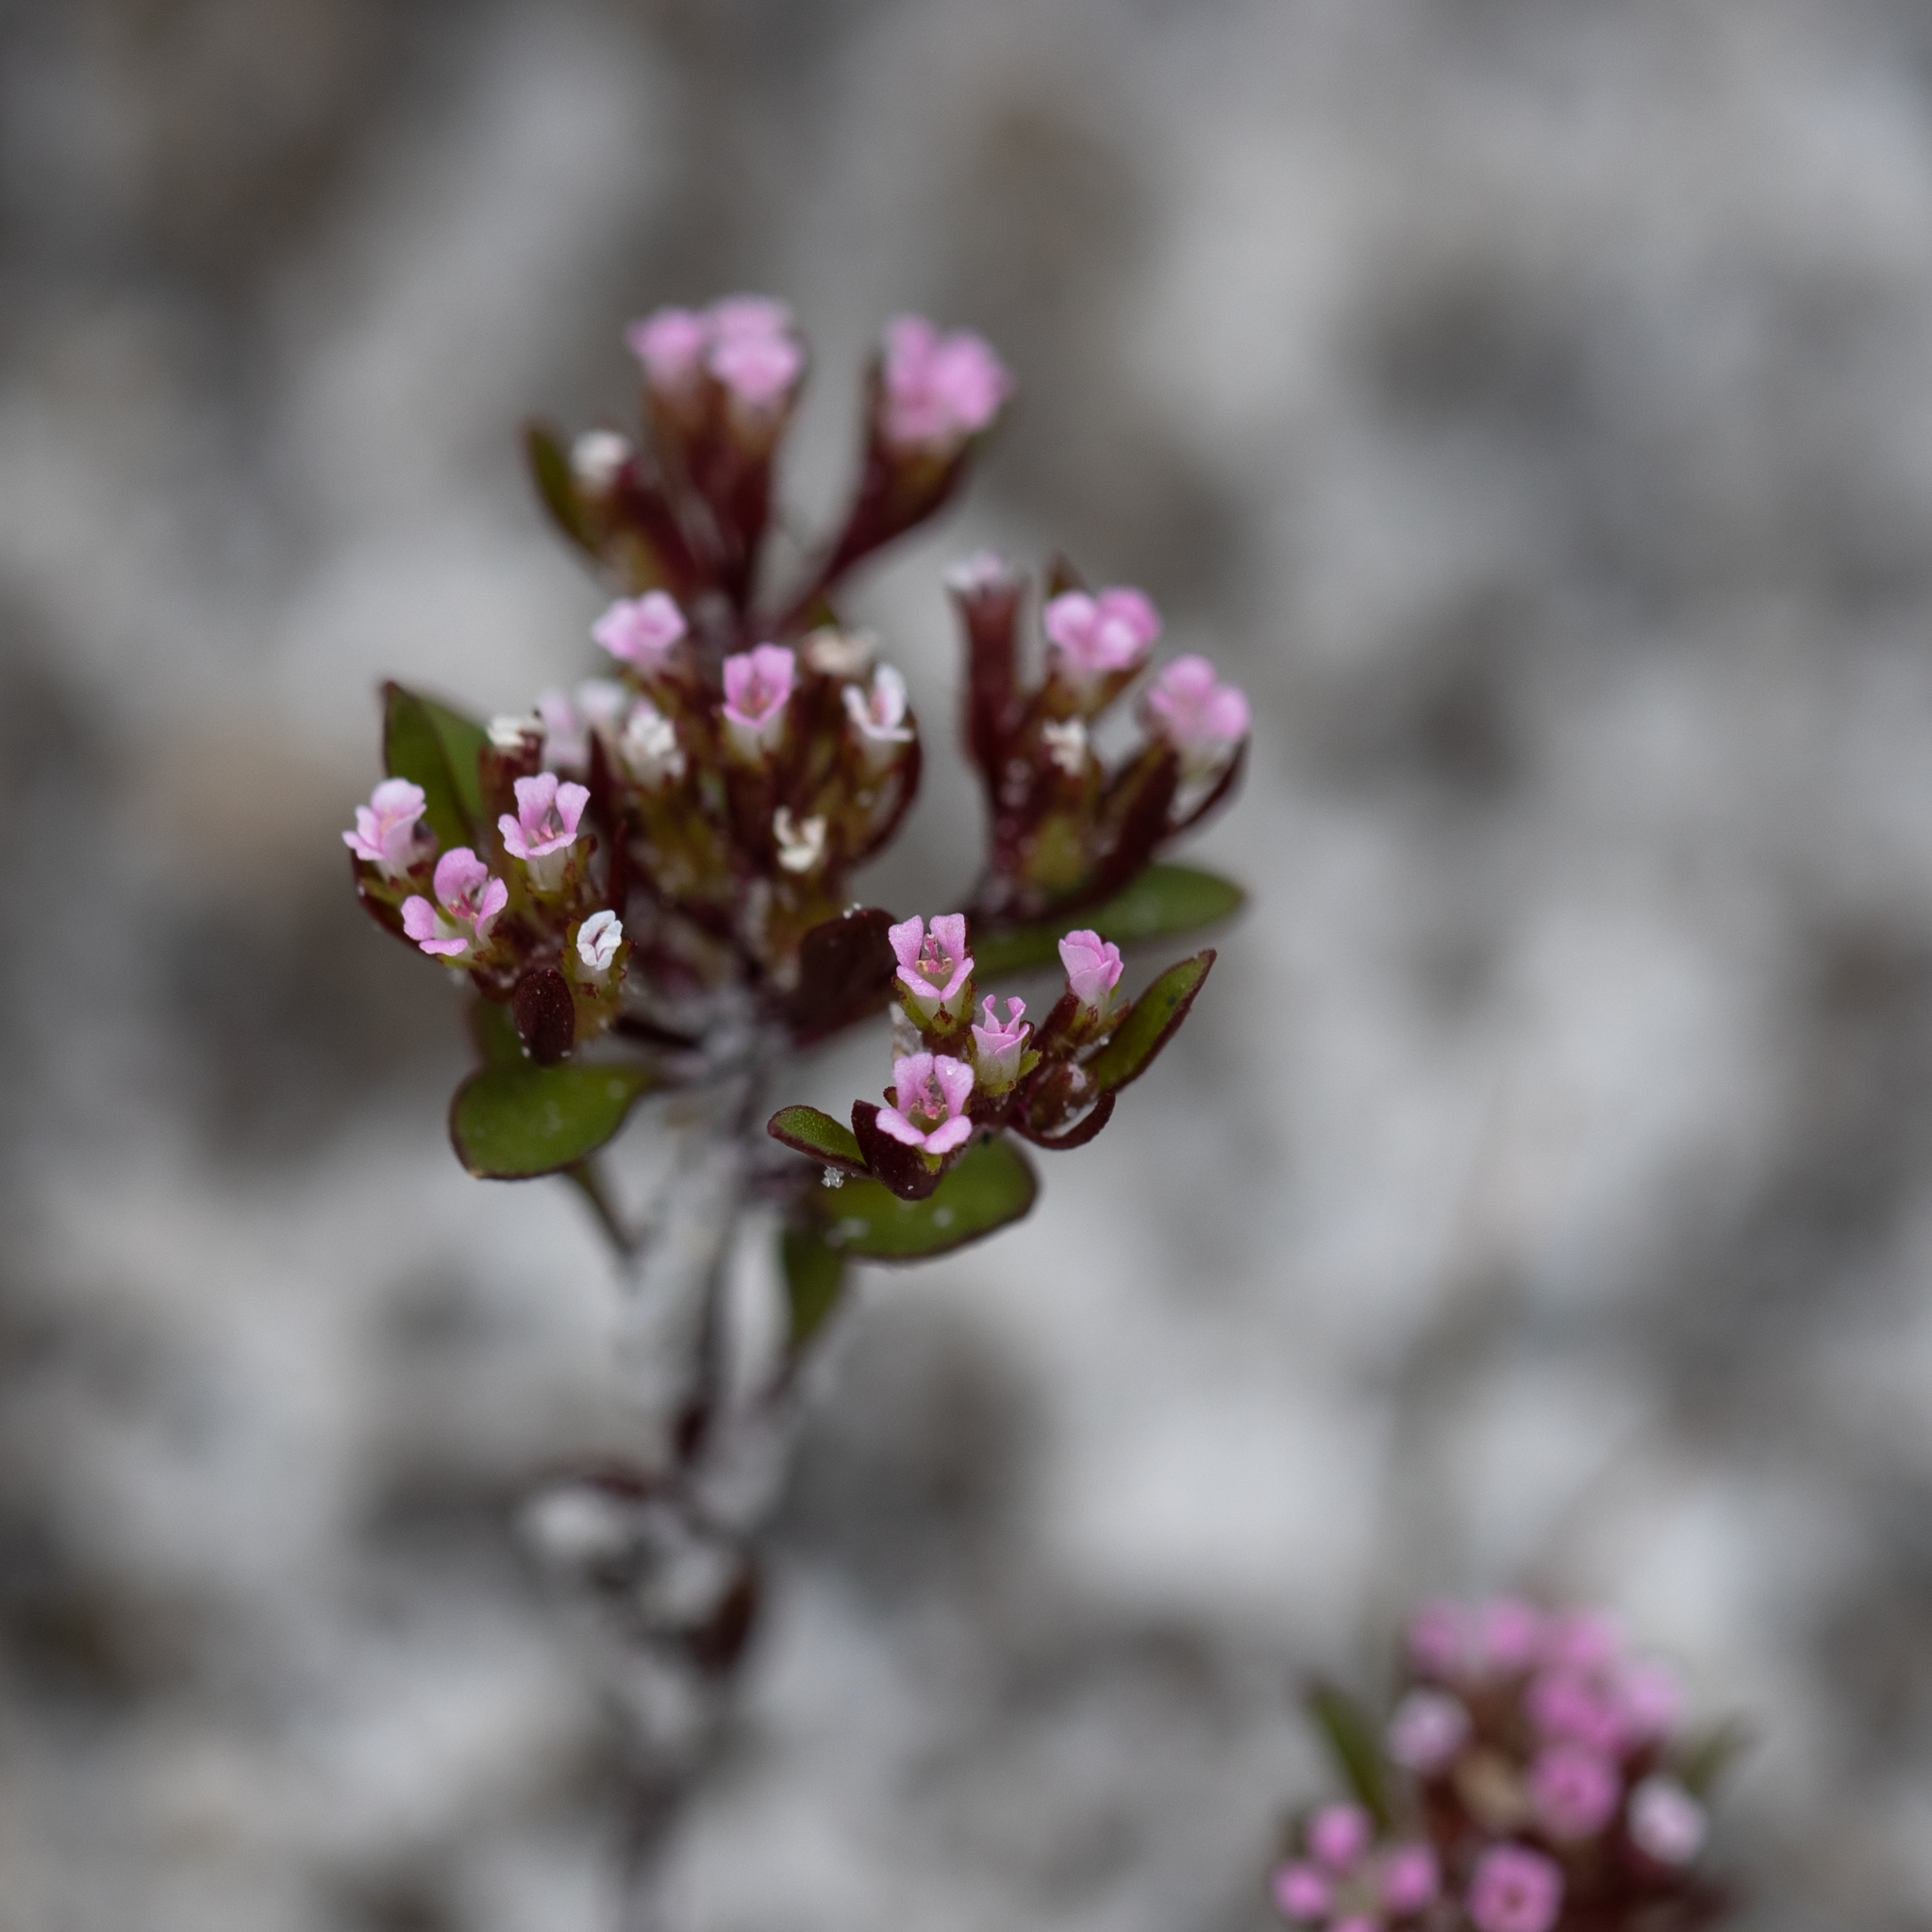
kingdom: Plantae
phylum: Tracheophyta
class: Magnoliopsida
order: Asterales
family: Stylidiaceae
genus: Levenhookia
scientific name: Levenhookia pusilla
